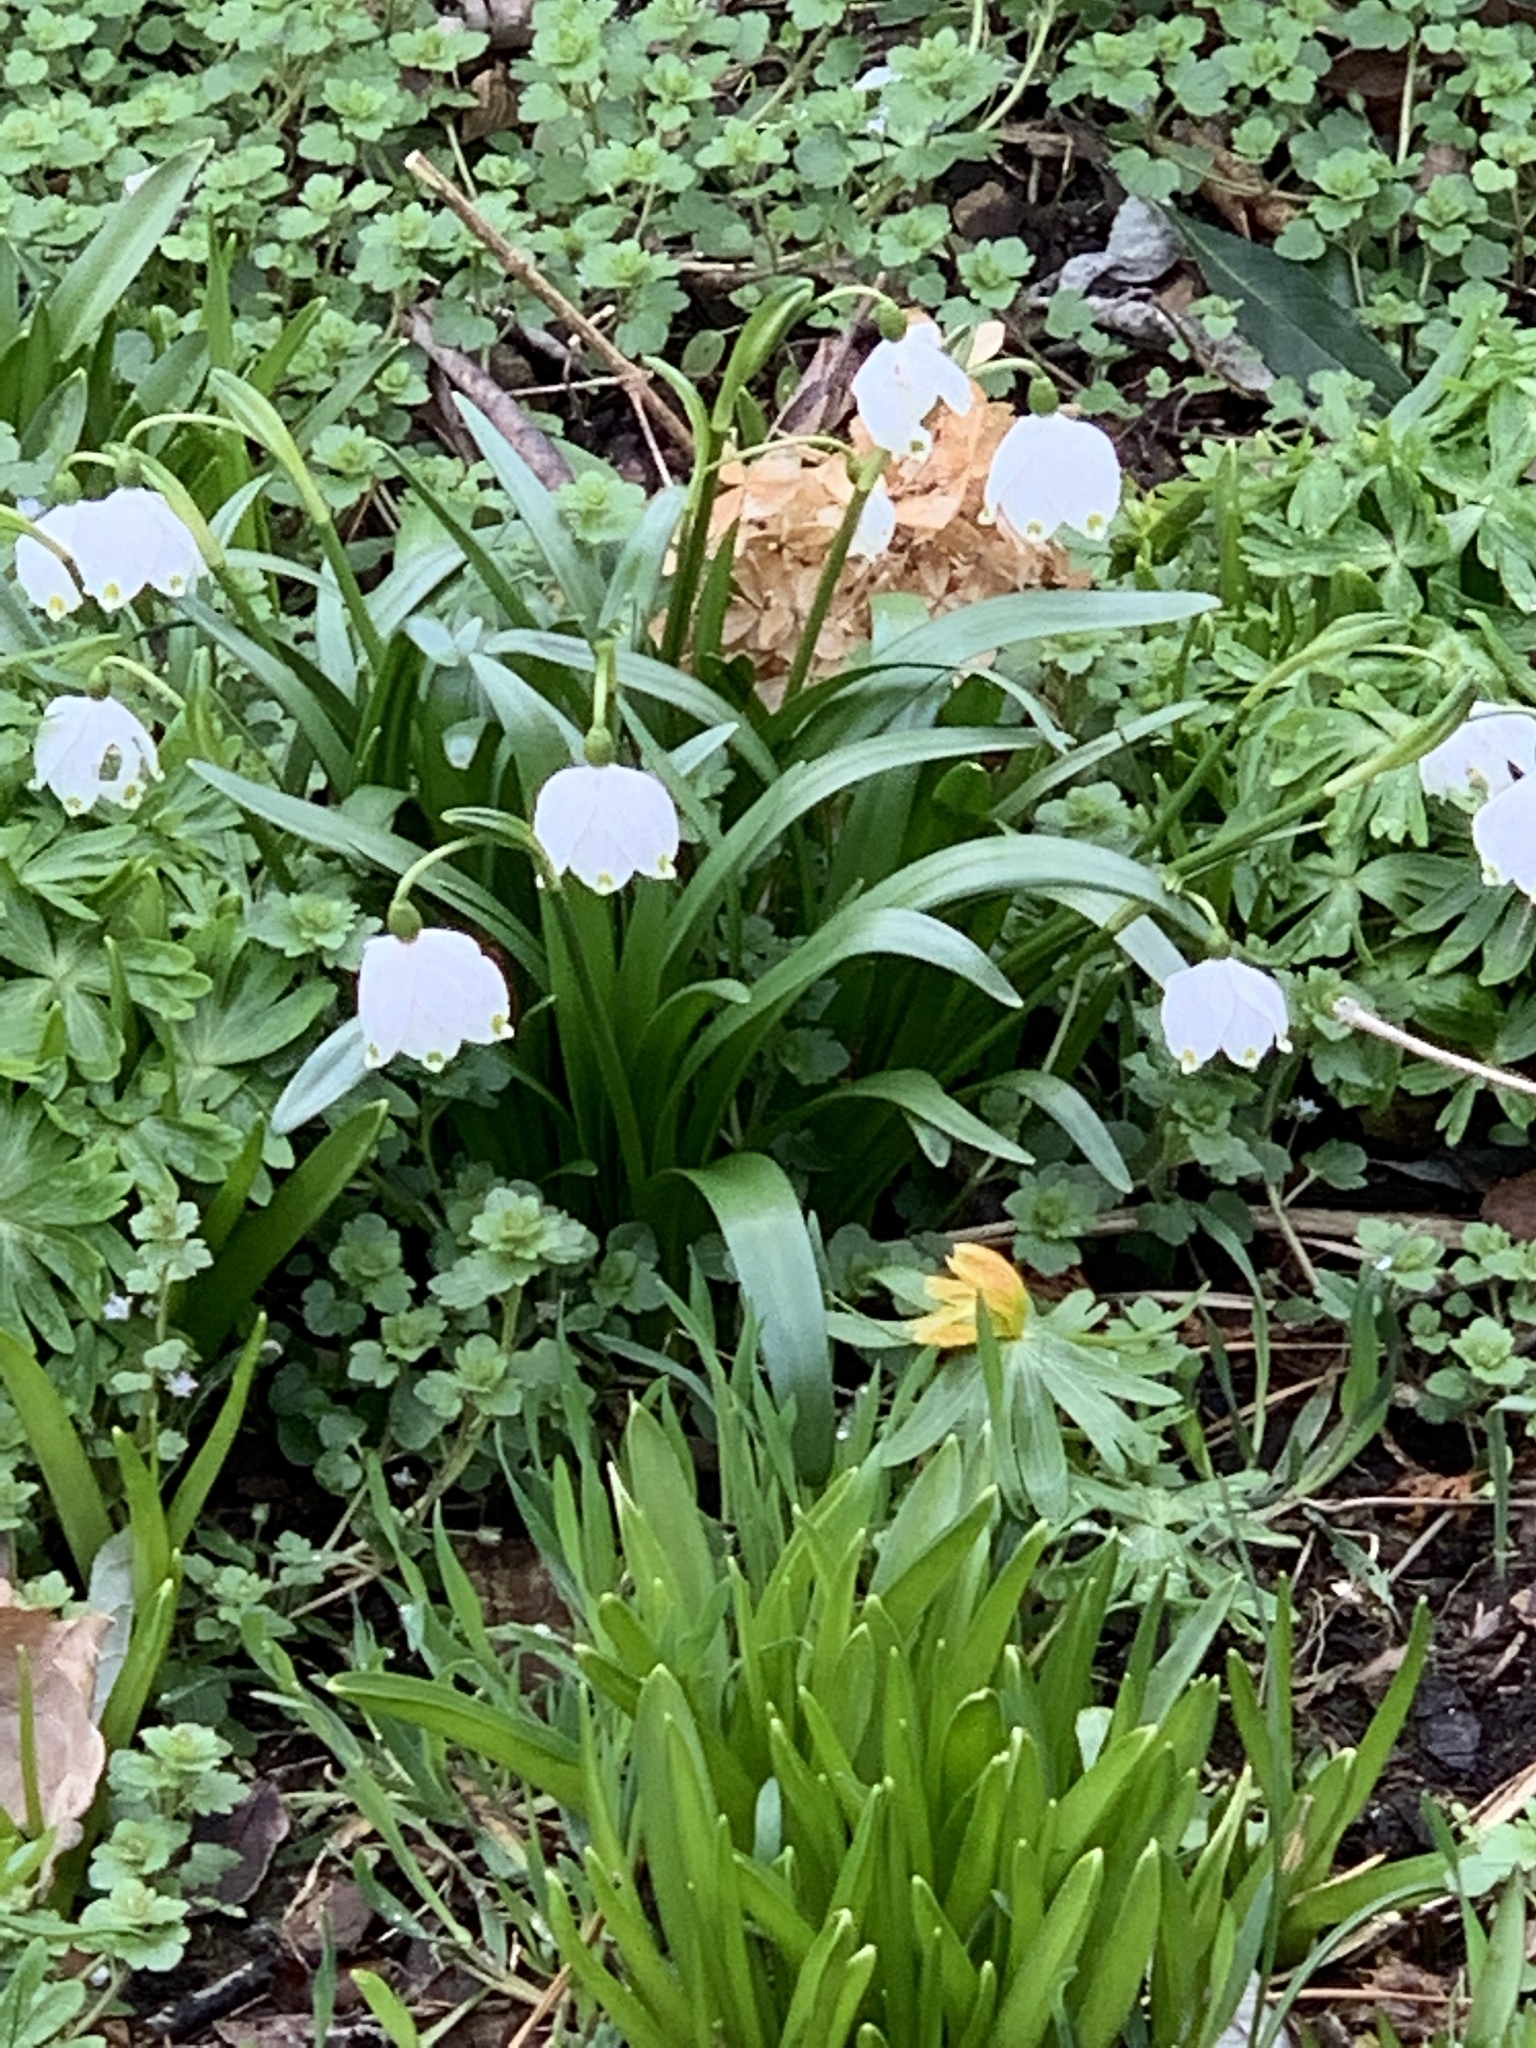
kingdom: Plantae
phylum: Tracheophyta
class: Liliopsida
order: Asparagales
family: Amaryllidaceae
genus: Leucojum
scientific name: Leucojum vernum
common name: Spring snowflake
